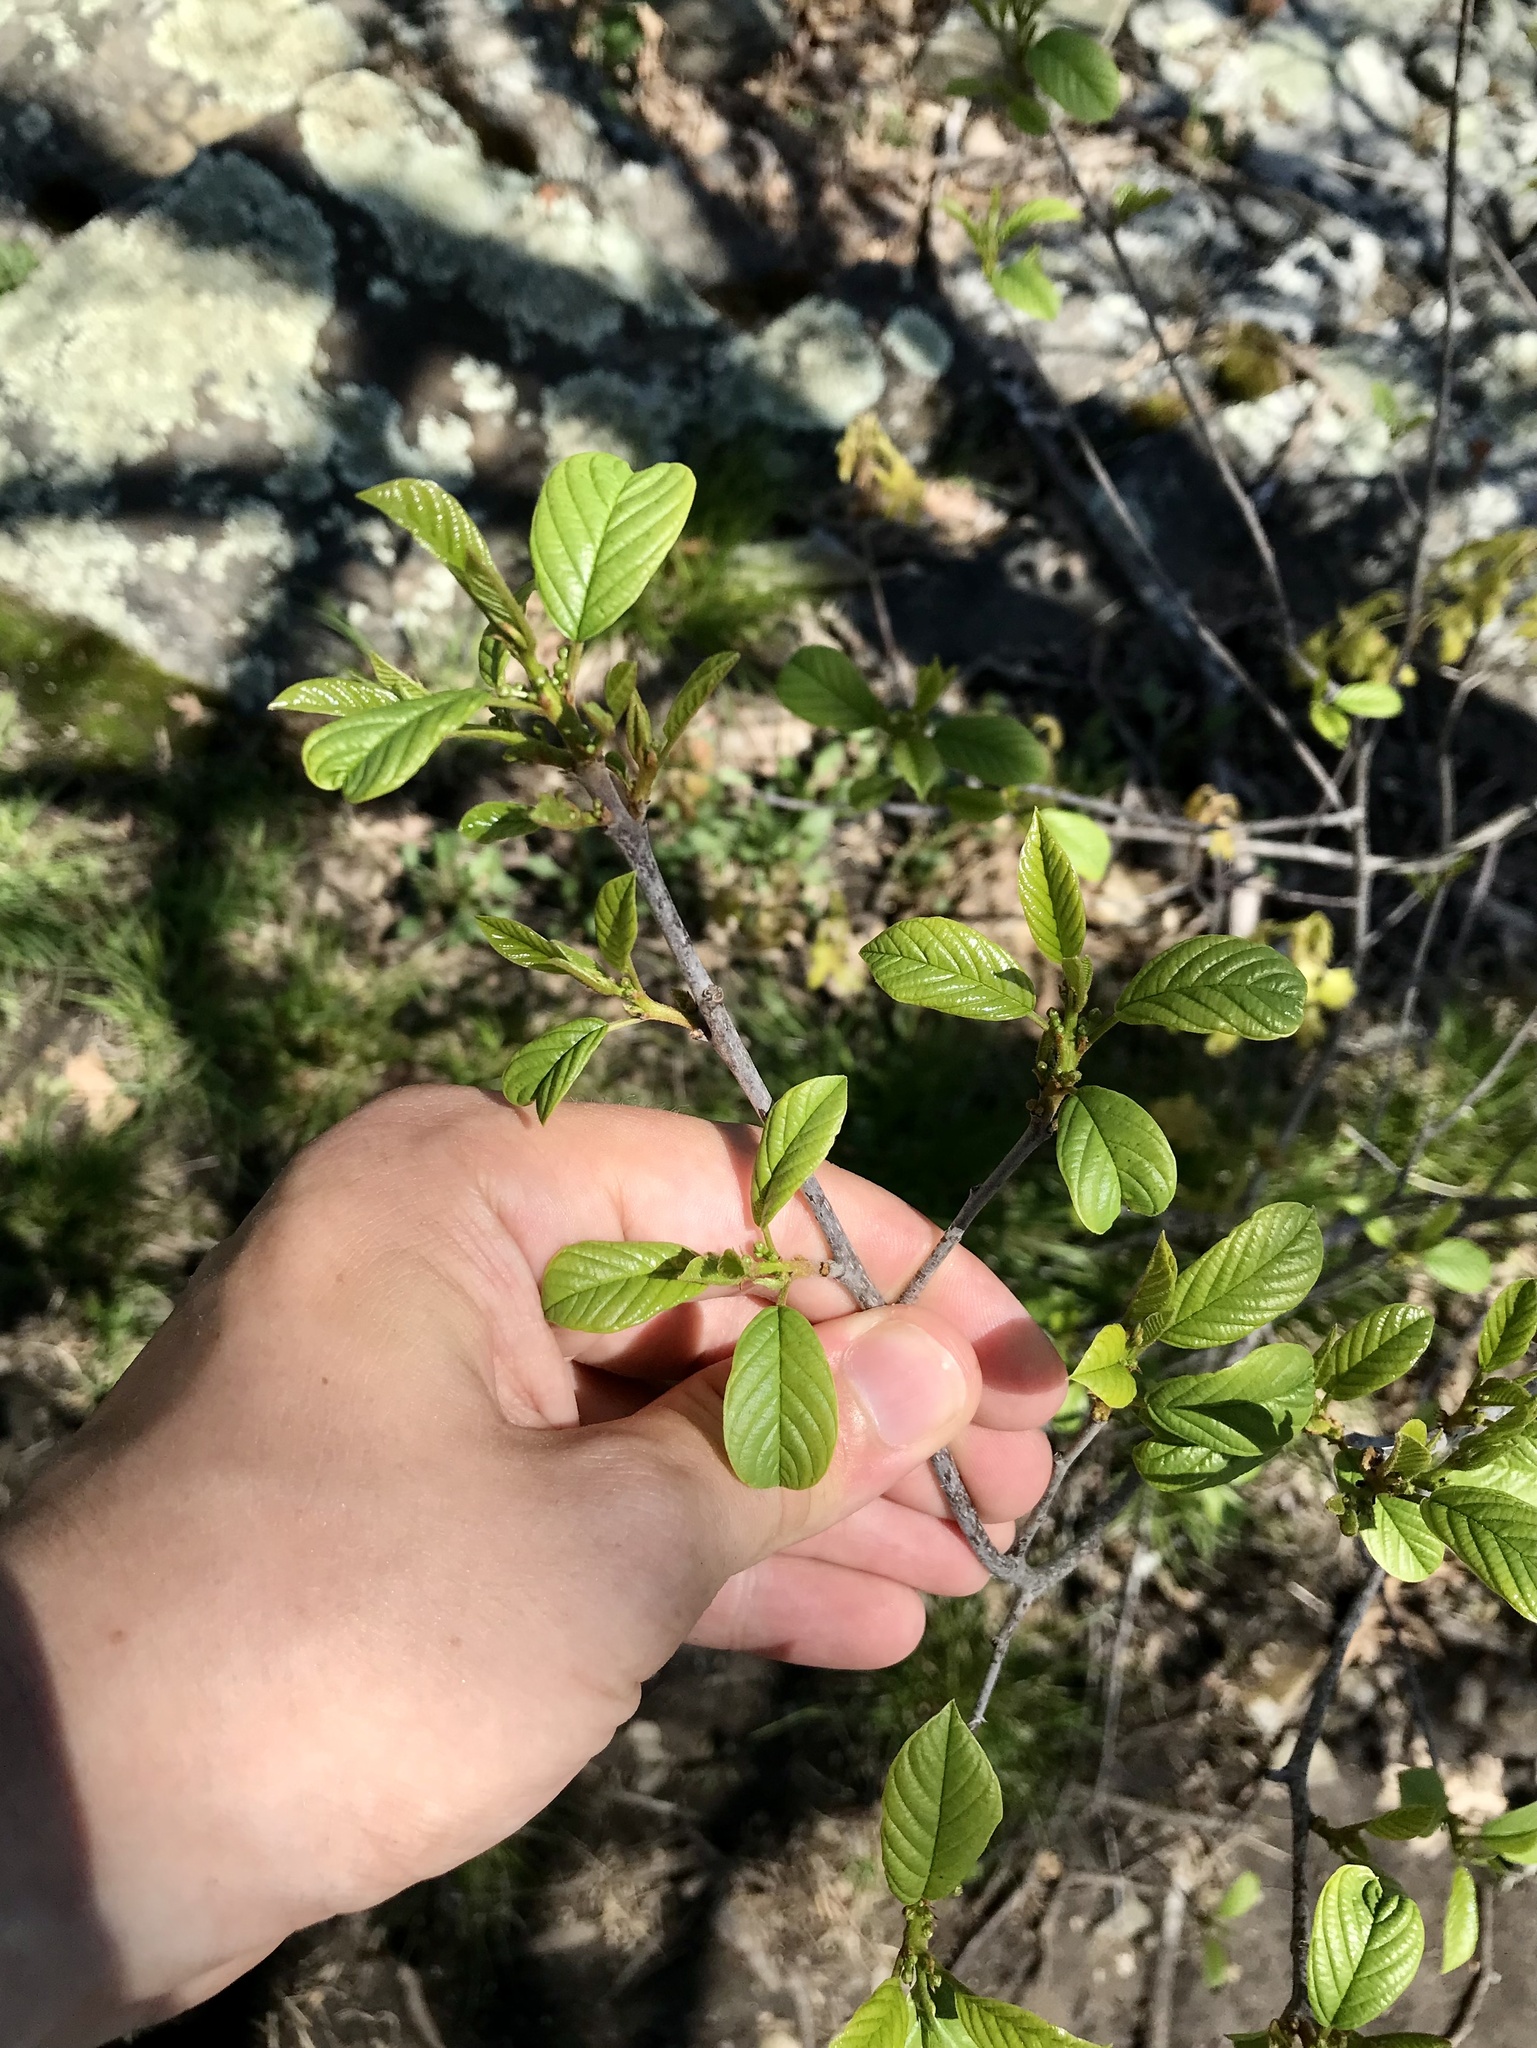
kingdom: Plantae
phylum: Tracheophyta
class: Magnoliopsida
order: Rosales
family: Rhamnaceae
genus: Frangula
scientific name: Frangula alnus
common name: Alder buckthorn
